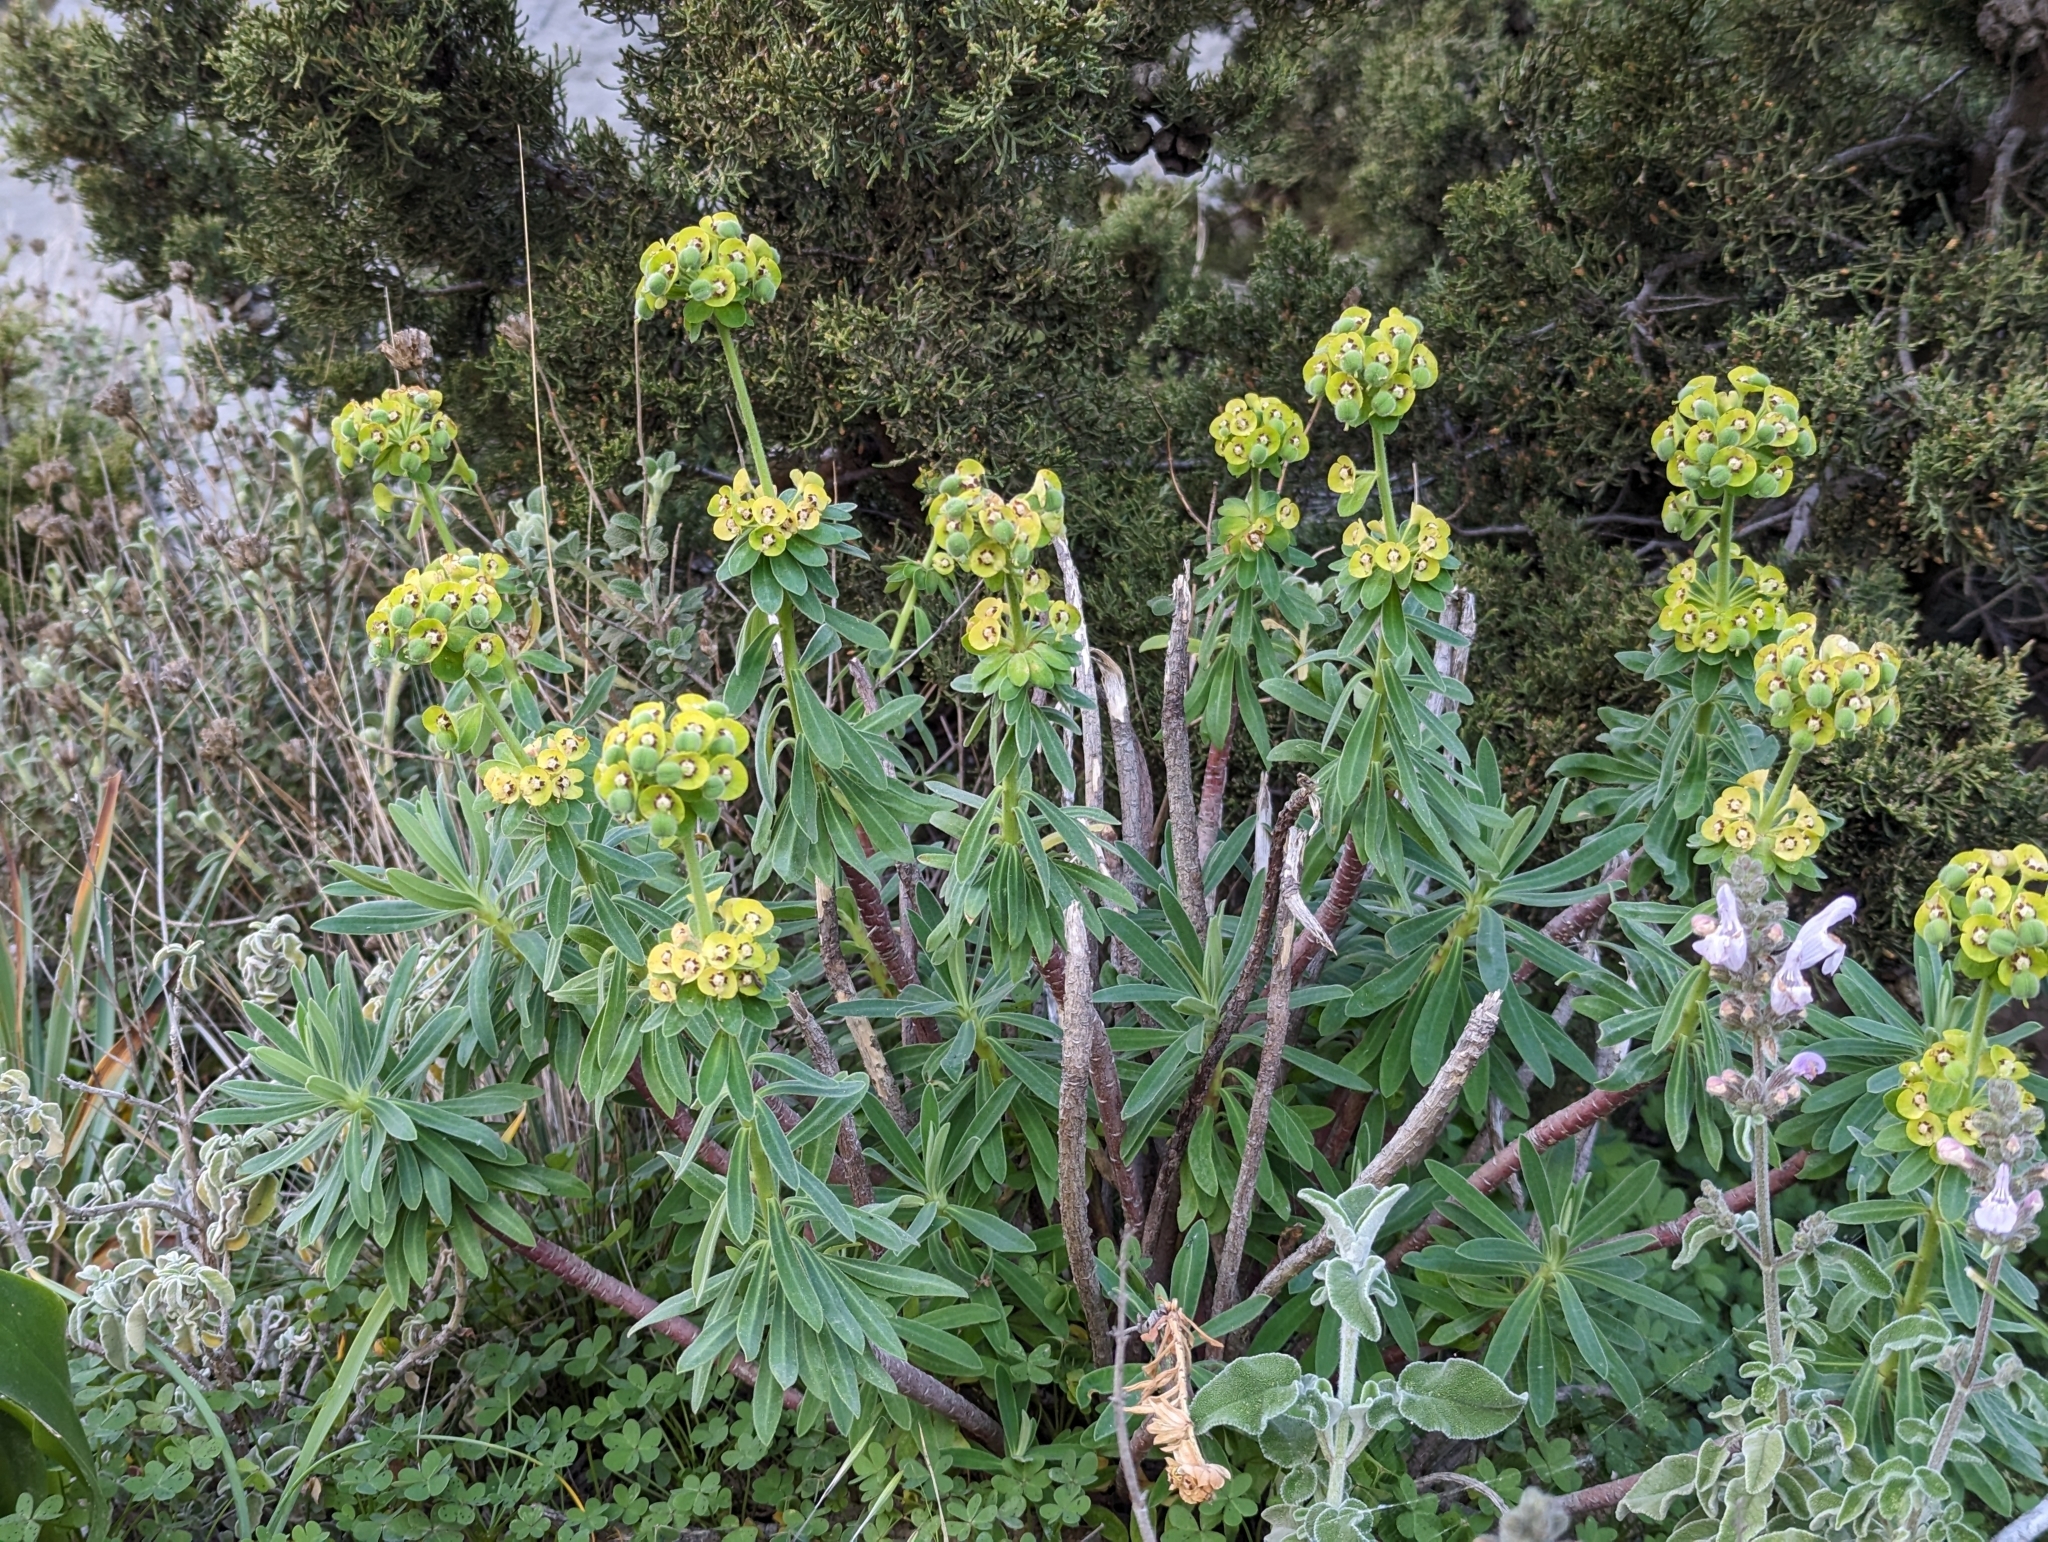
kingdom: Plantae
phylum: Tracheophyta
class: Magnoliopsida
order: Malpighiales
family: Euphorbiaceae
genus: Euphorbia
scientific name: Euphorbia characias
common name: Mediterranean spurge
